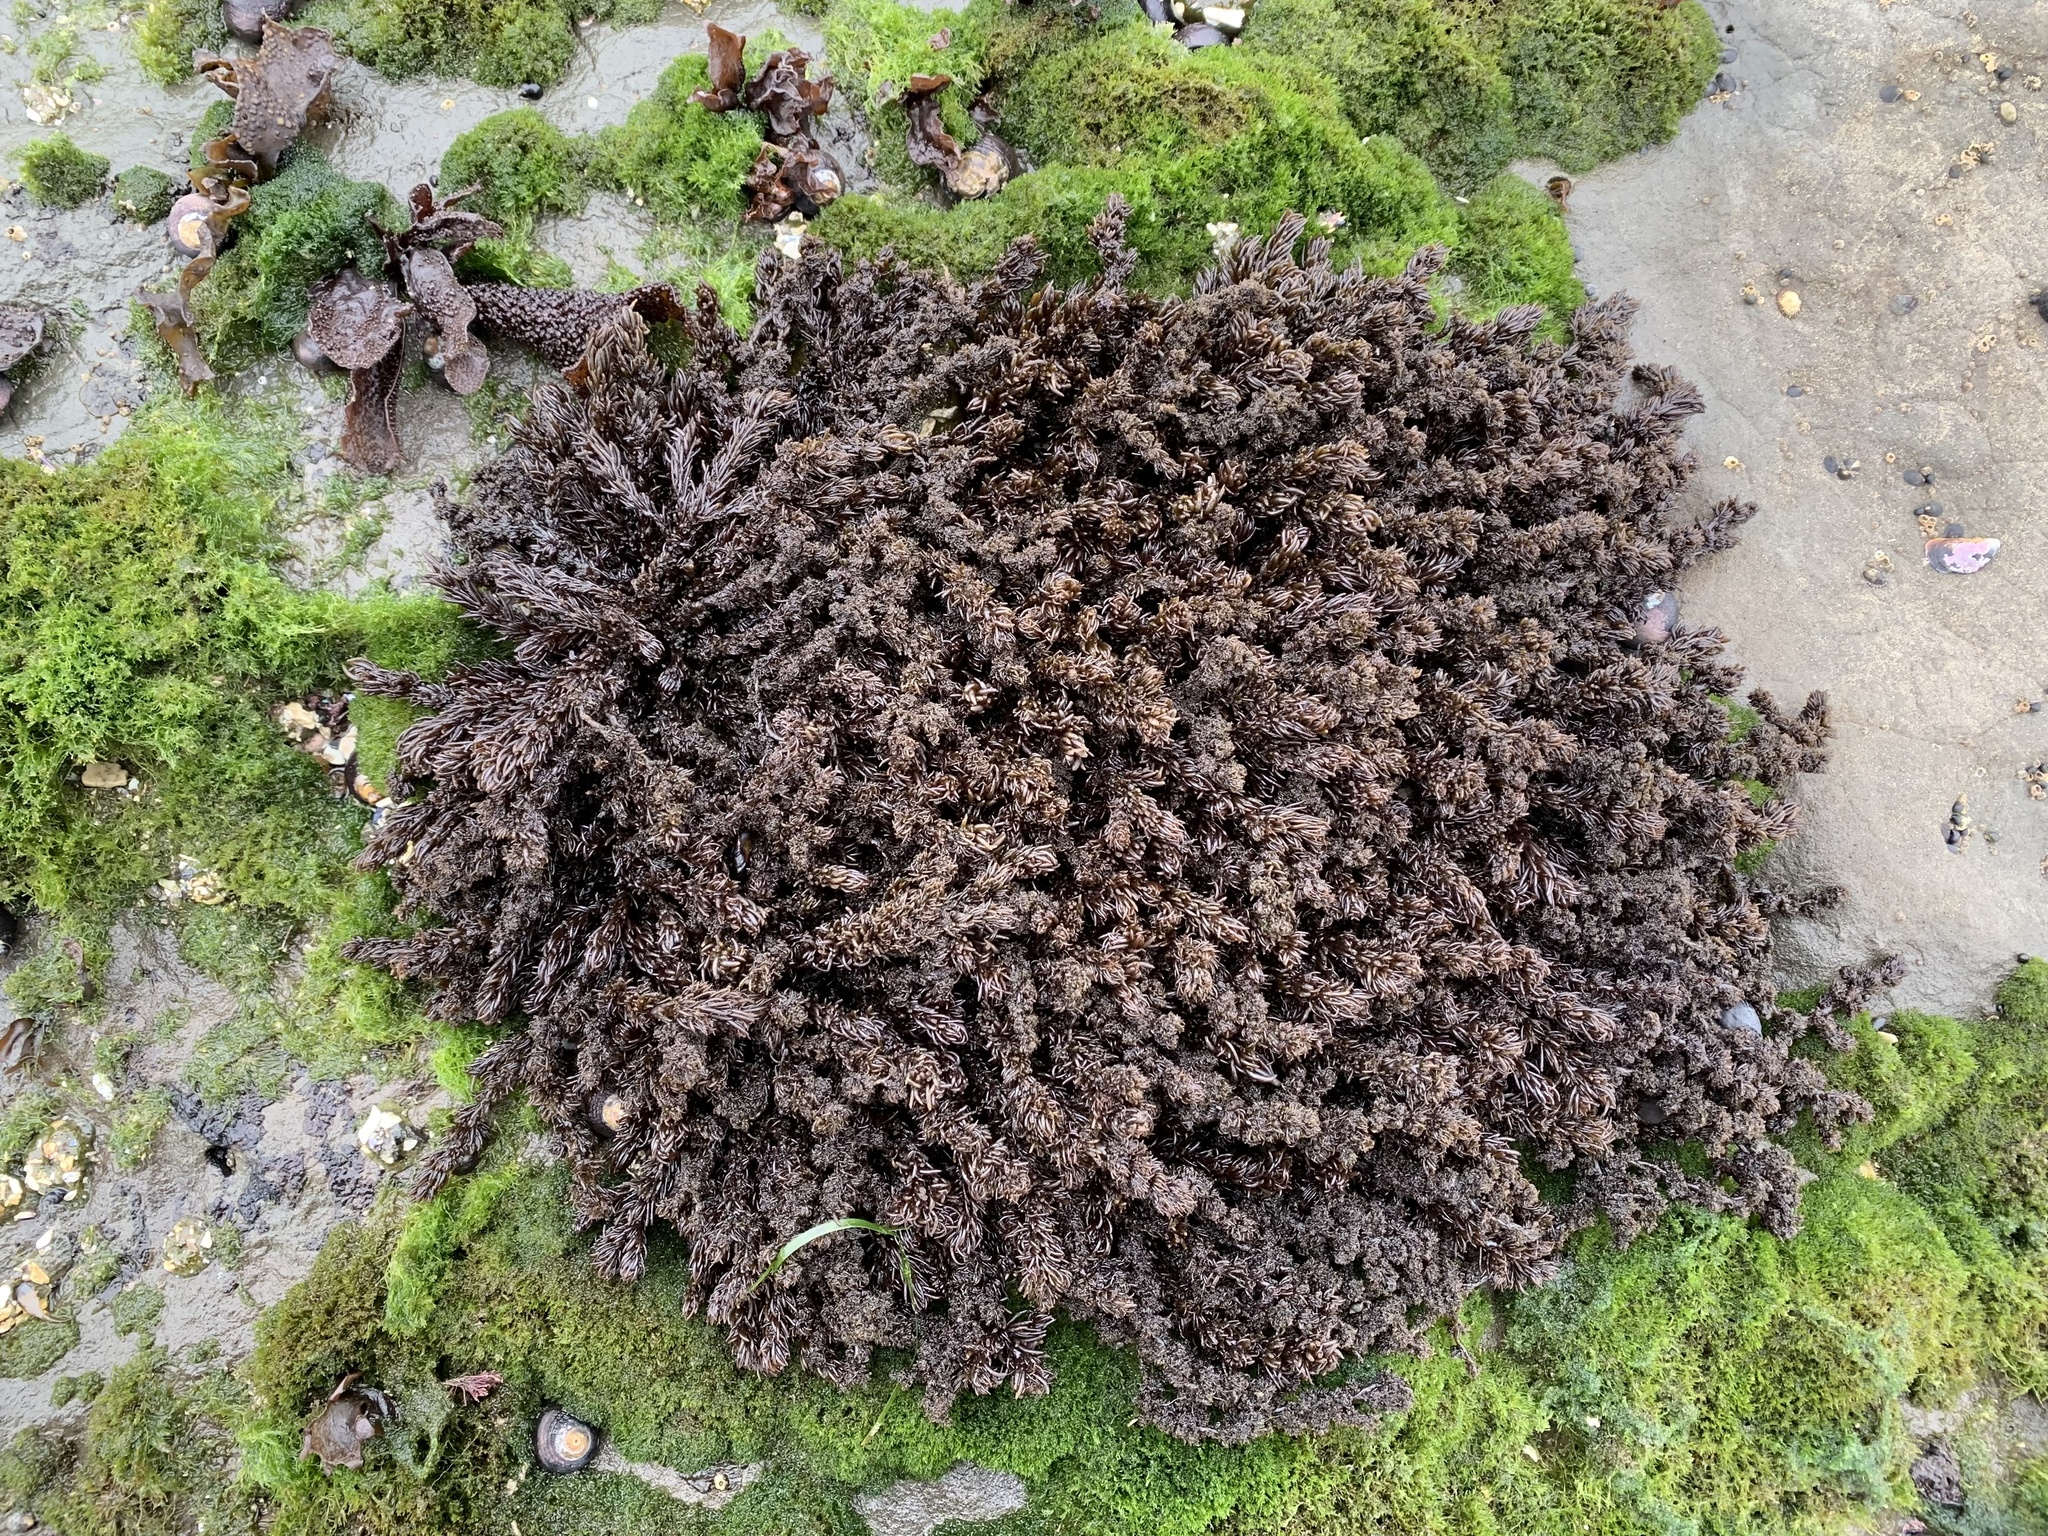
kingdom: Plantae
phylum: Rhodophyta
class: Florideophyceae
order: Ceramiales
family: Rhodomelaceae
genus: Neorhodomela
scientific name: Neorhodomela larix
